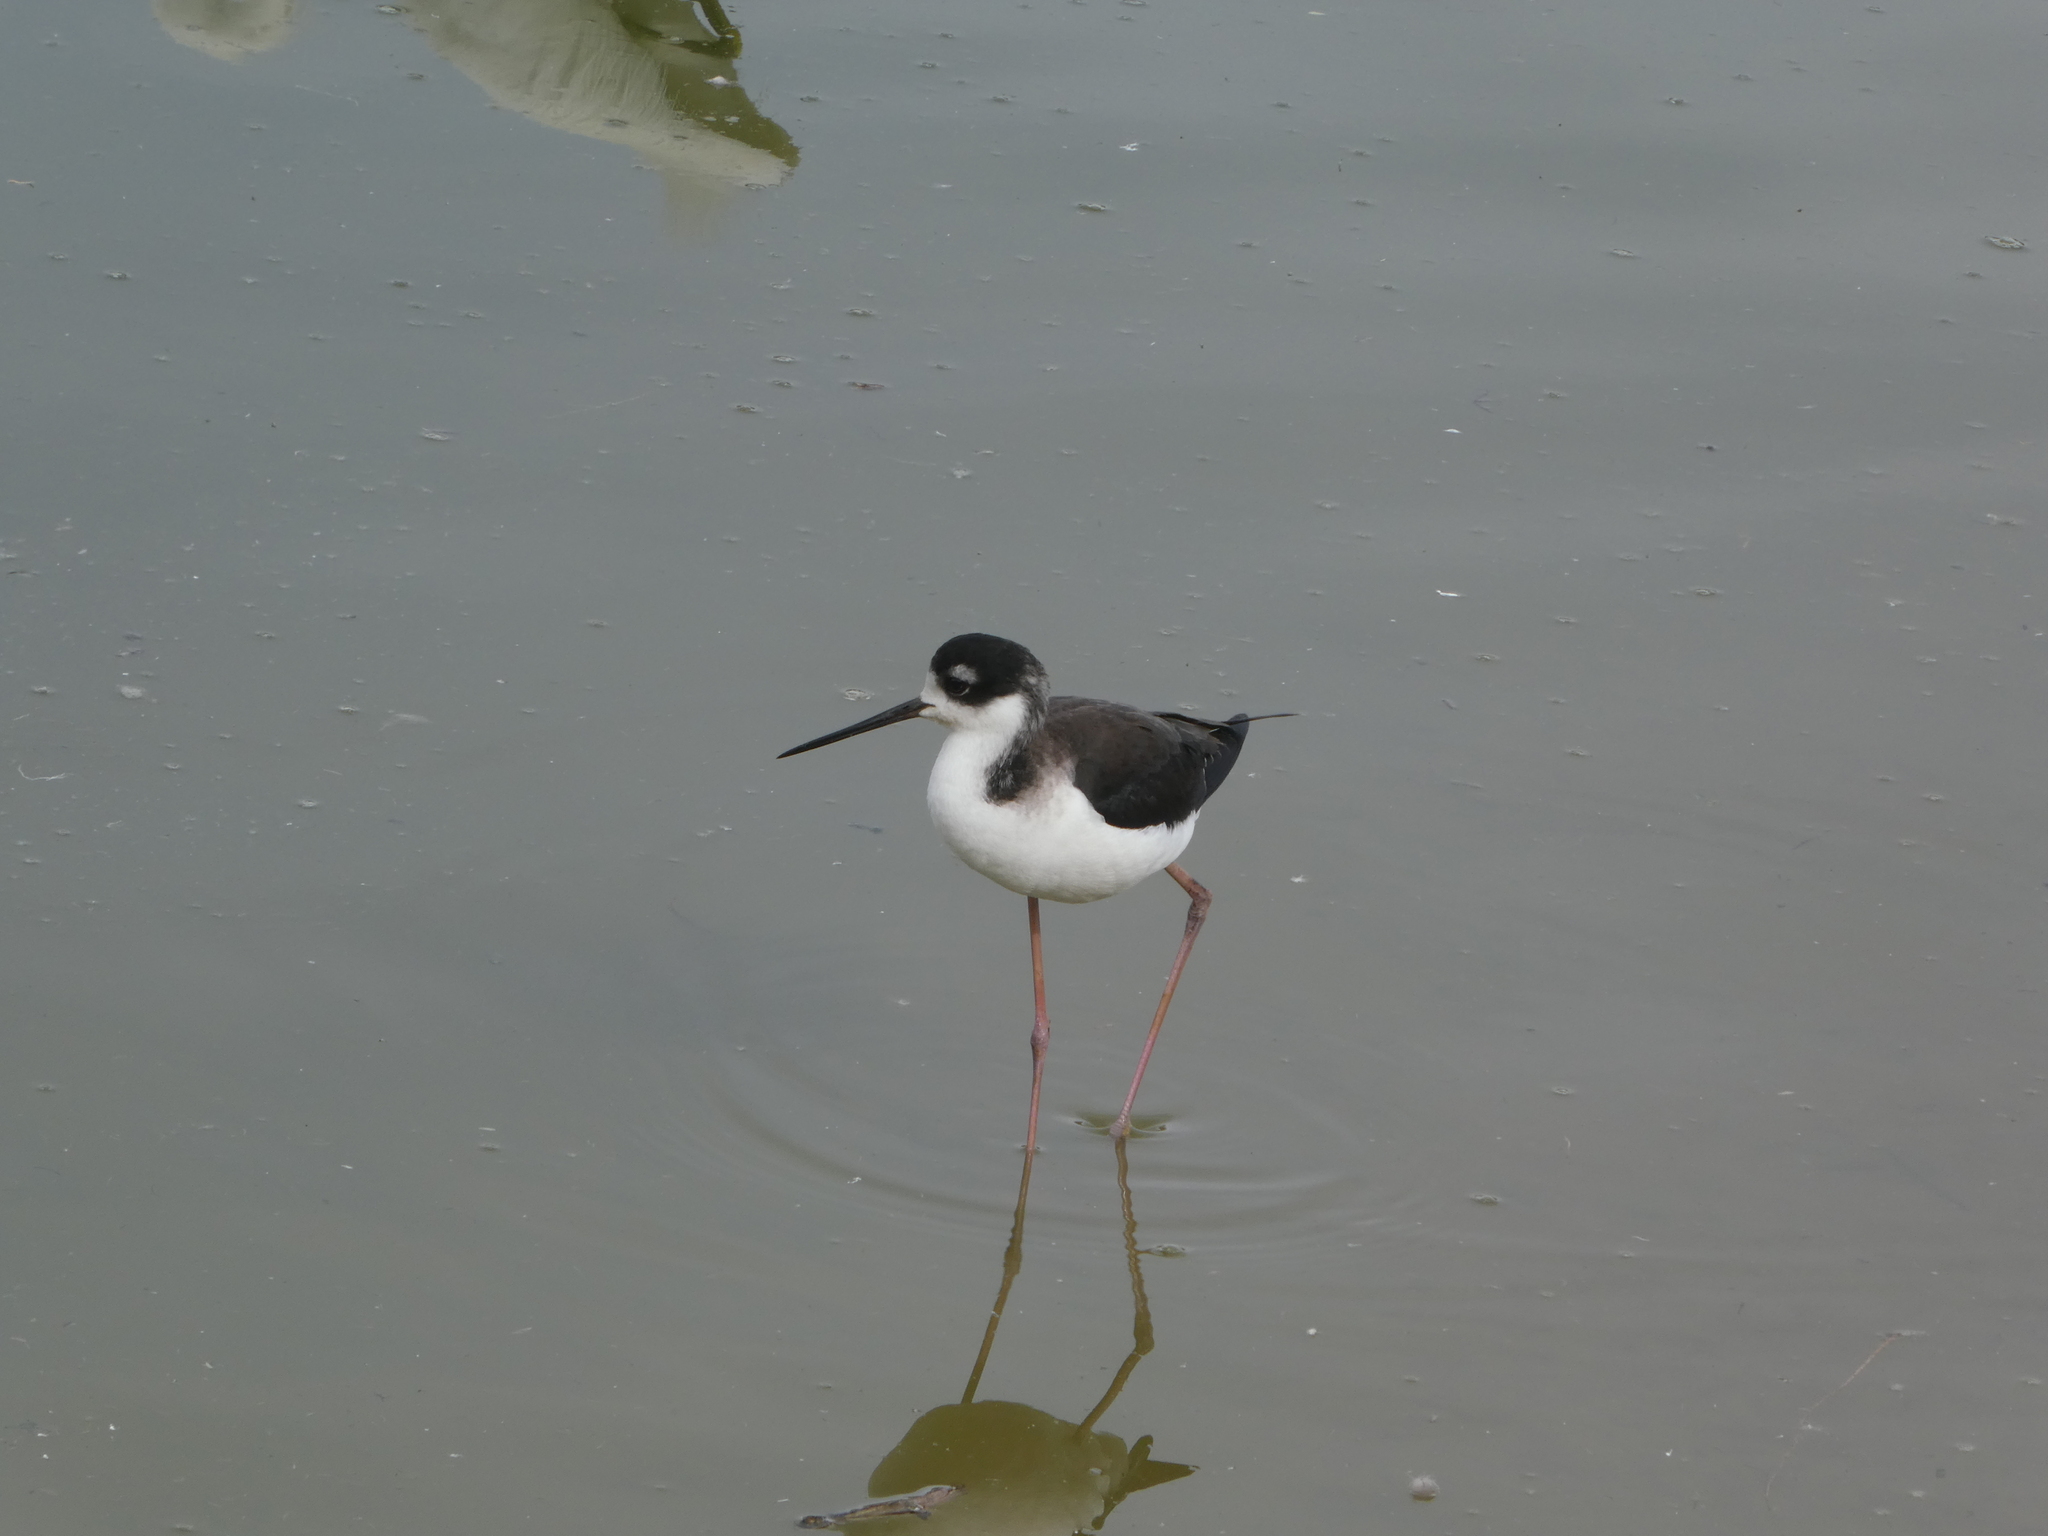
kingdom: Animalia
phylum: Chordata
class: Aves
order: Charadriiformes
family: Recurvirostridae
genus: Himantopus
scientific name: Himantopus mexicanus
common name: Black-necked stilt
